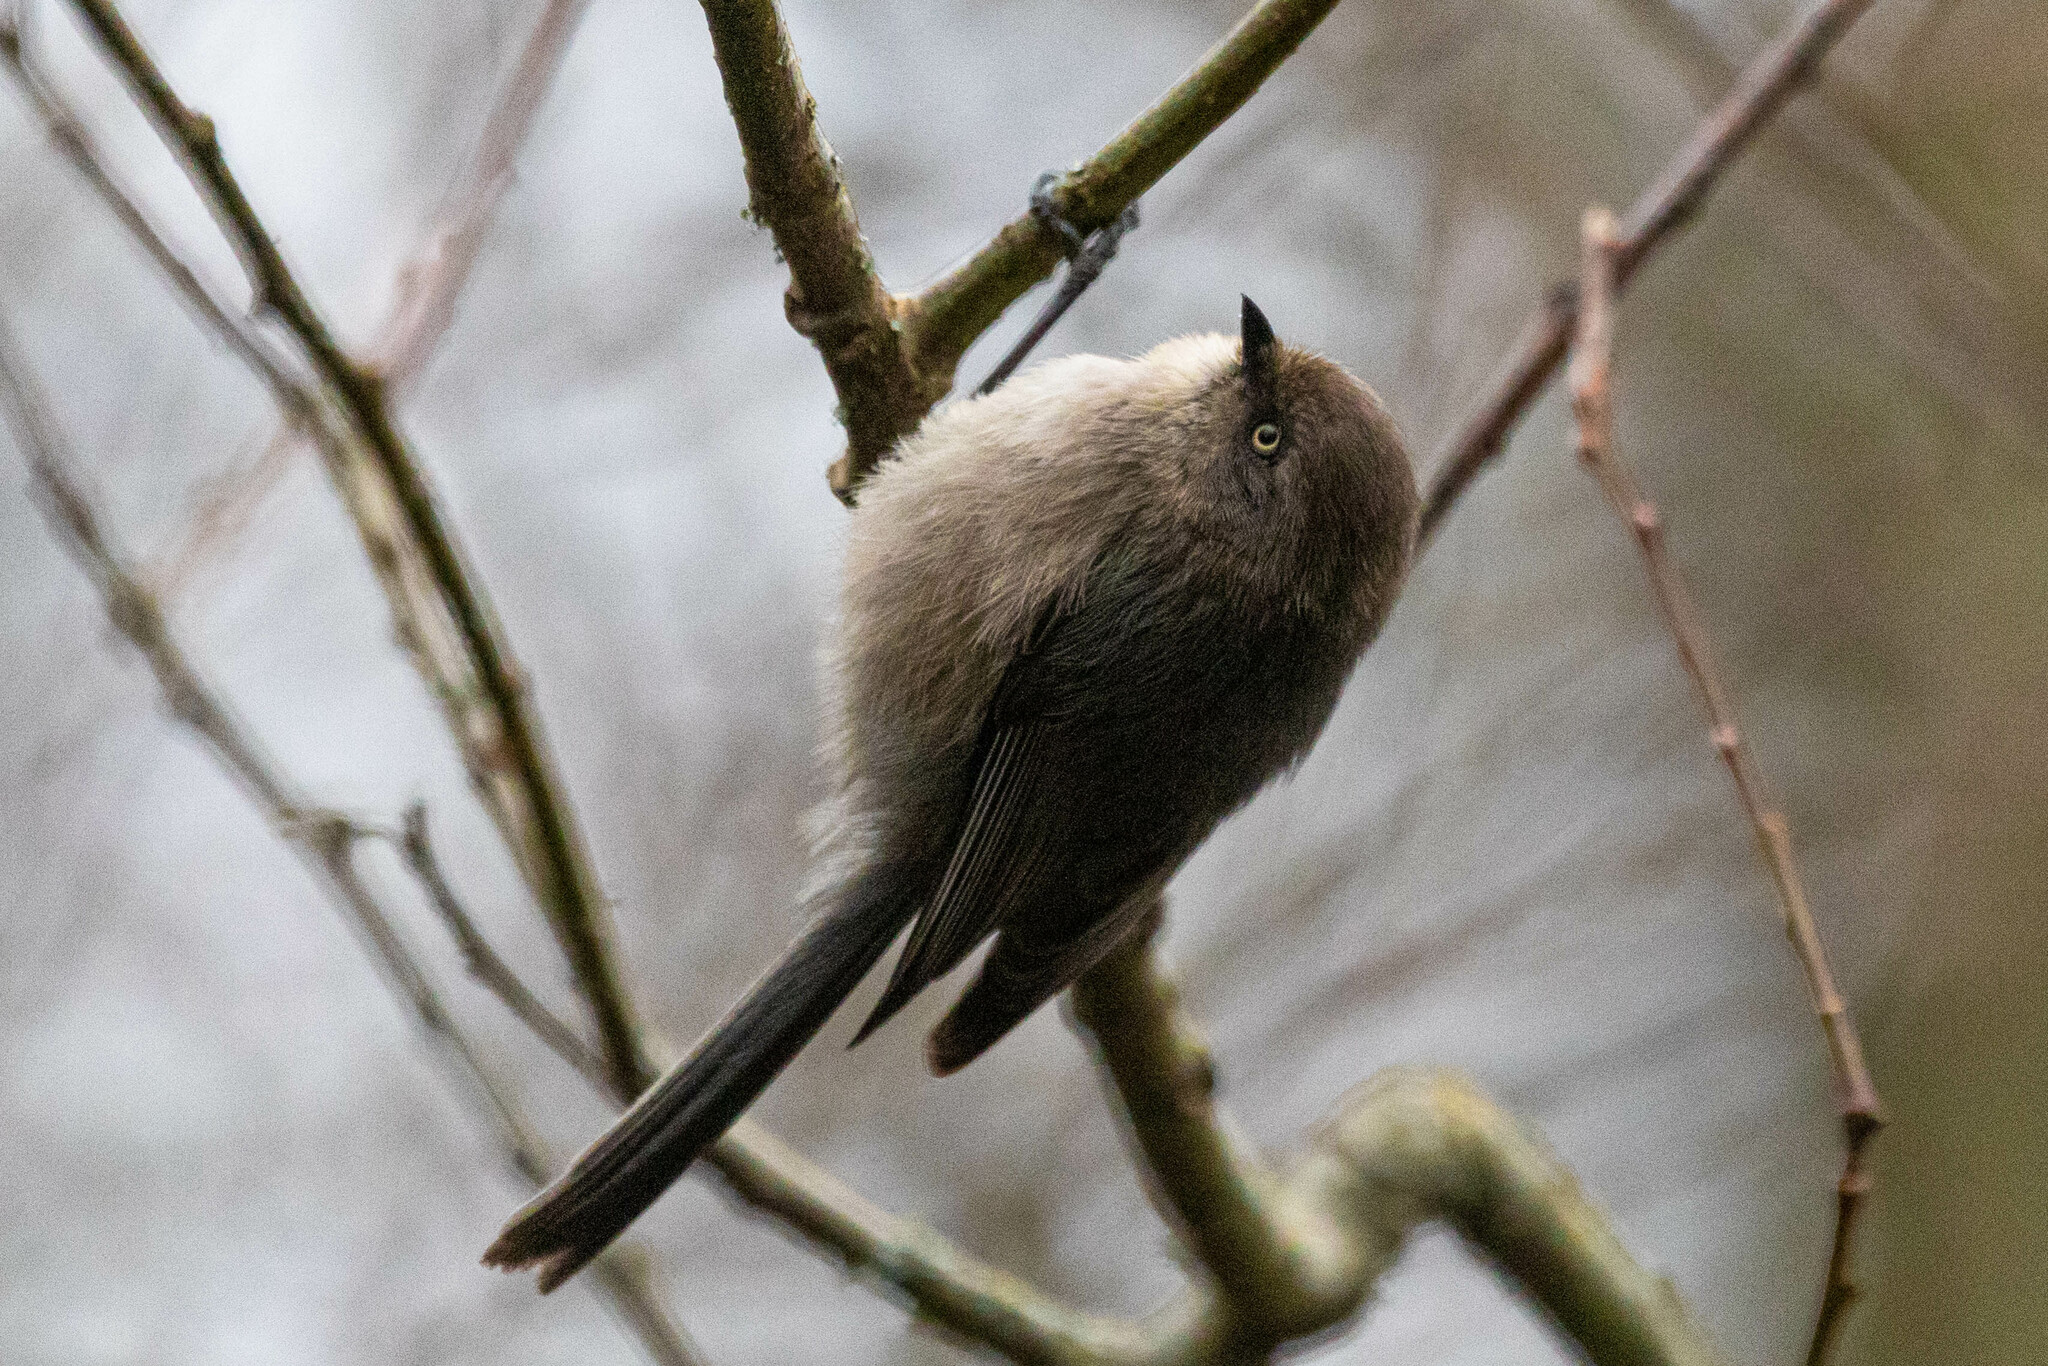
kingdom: Animalia
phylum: Chordata
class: Aves
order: Passeriformes
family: Aegithalidae
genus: Psaltriparus
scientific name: Psaltriparus minimus
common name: American bushtit
